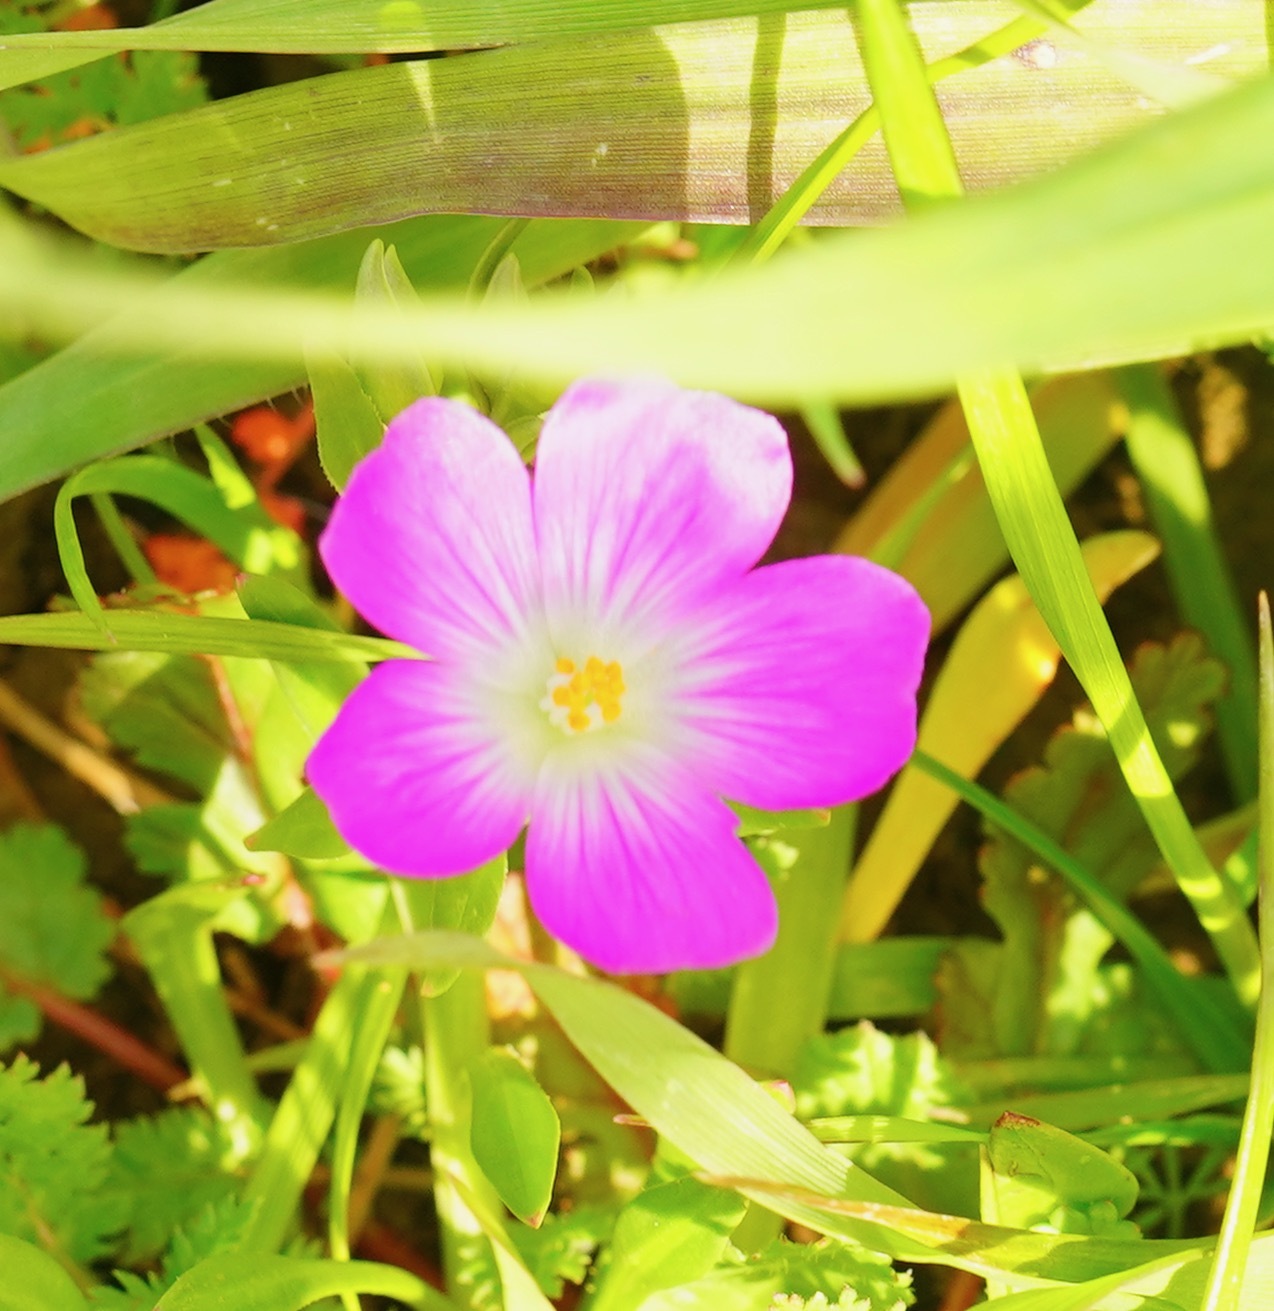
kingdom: Plantae
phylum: Tracheophyta
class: Magnoliopsida
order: Caryophyllales
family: Montiaceae
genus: Calandrinia
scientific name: Calandrinia menziesii
